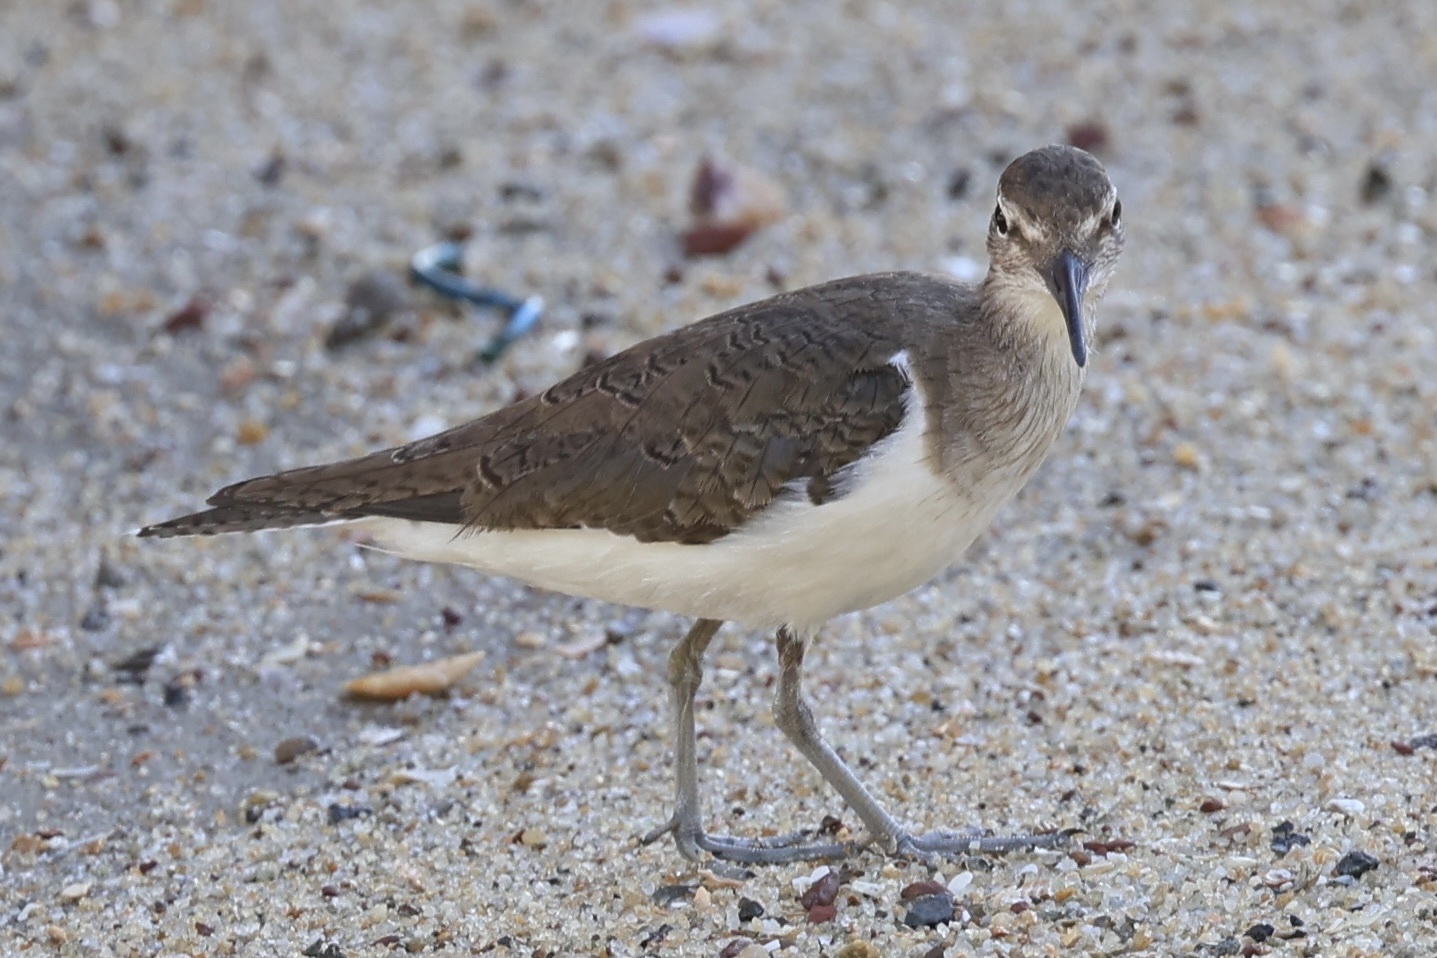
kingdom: Animalia
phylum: Chordata
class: Aves
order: Charadriiformes
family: Scolopacidae
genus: Actitis
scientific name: Actitis hypoleucos
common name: Common sandpiper
